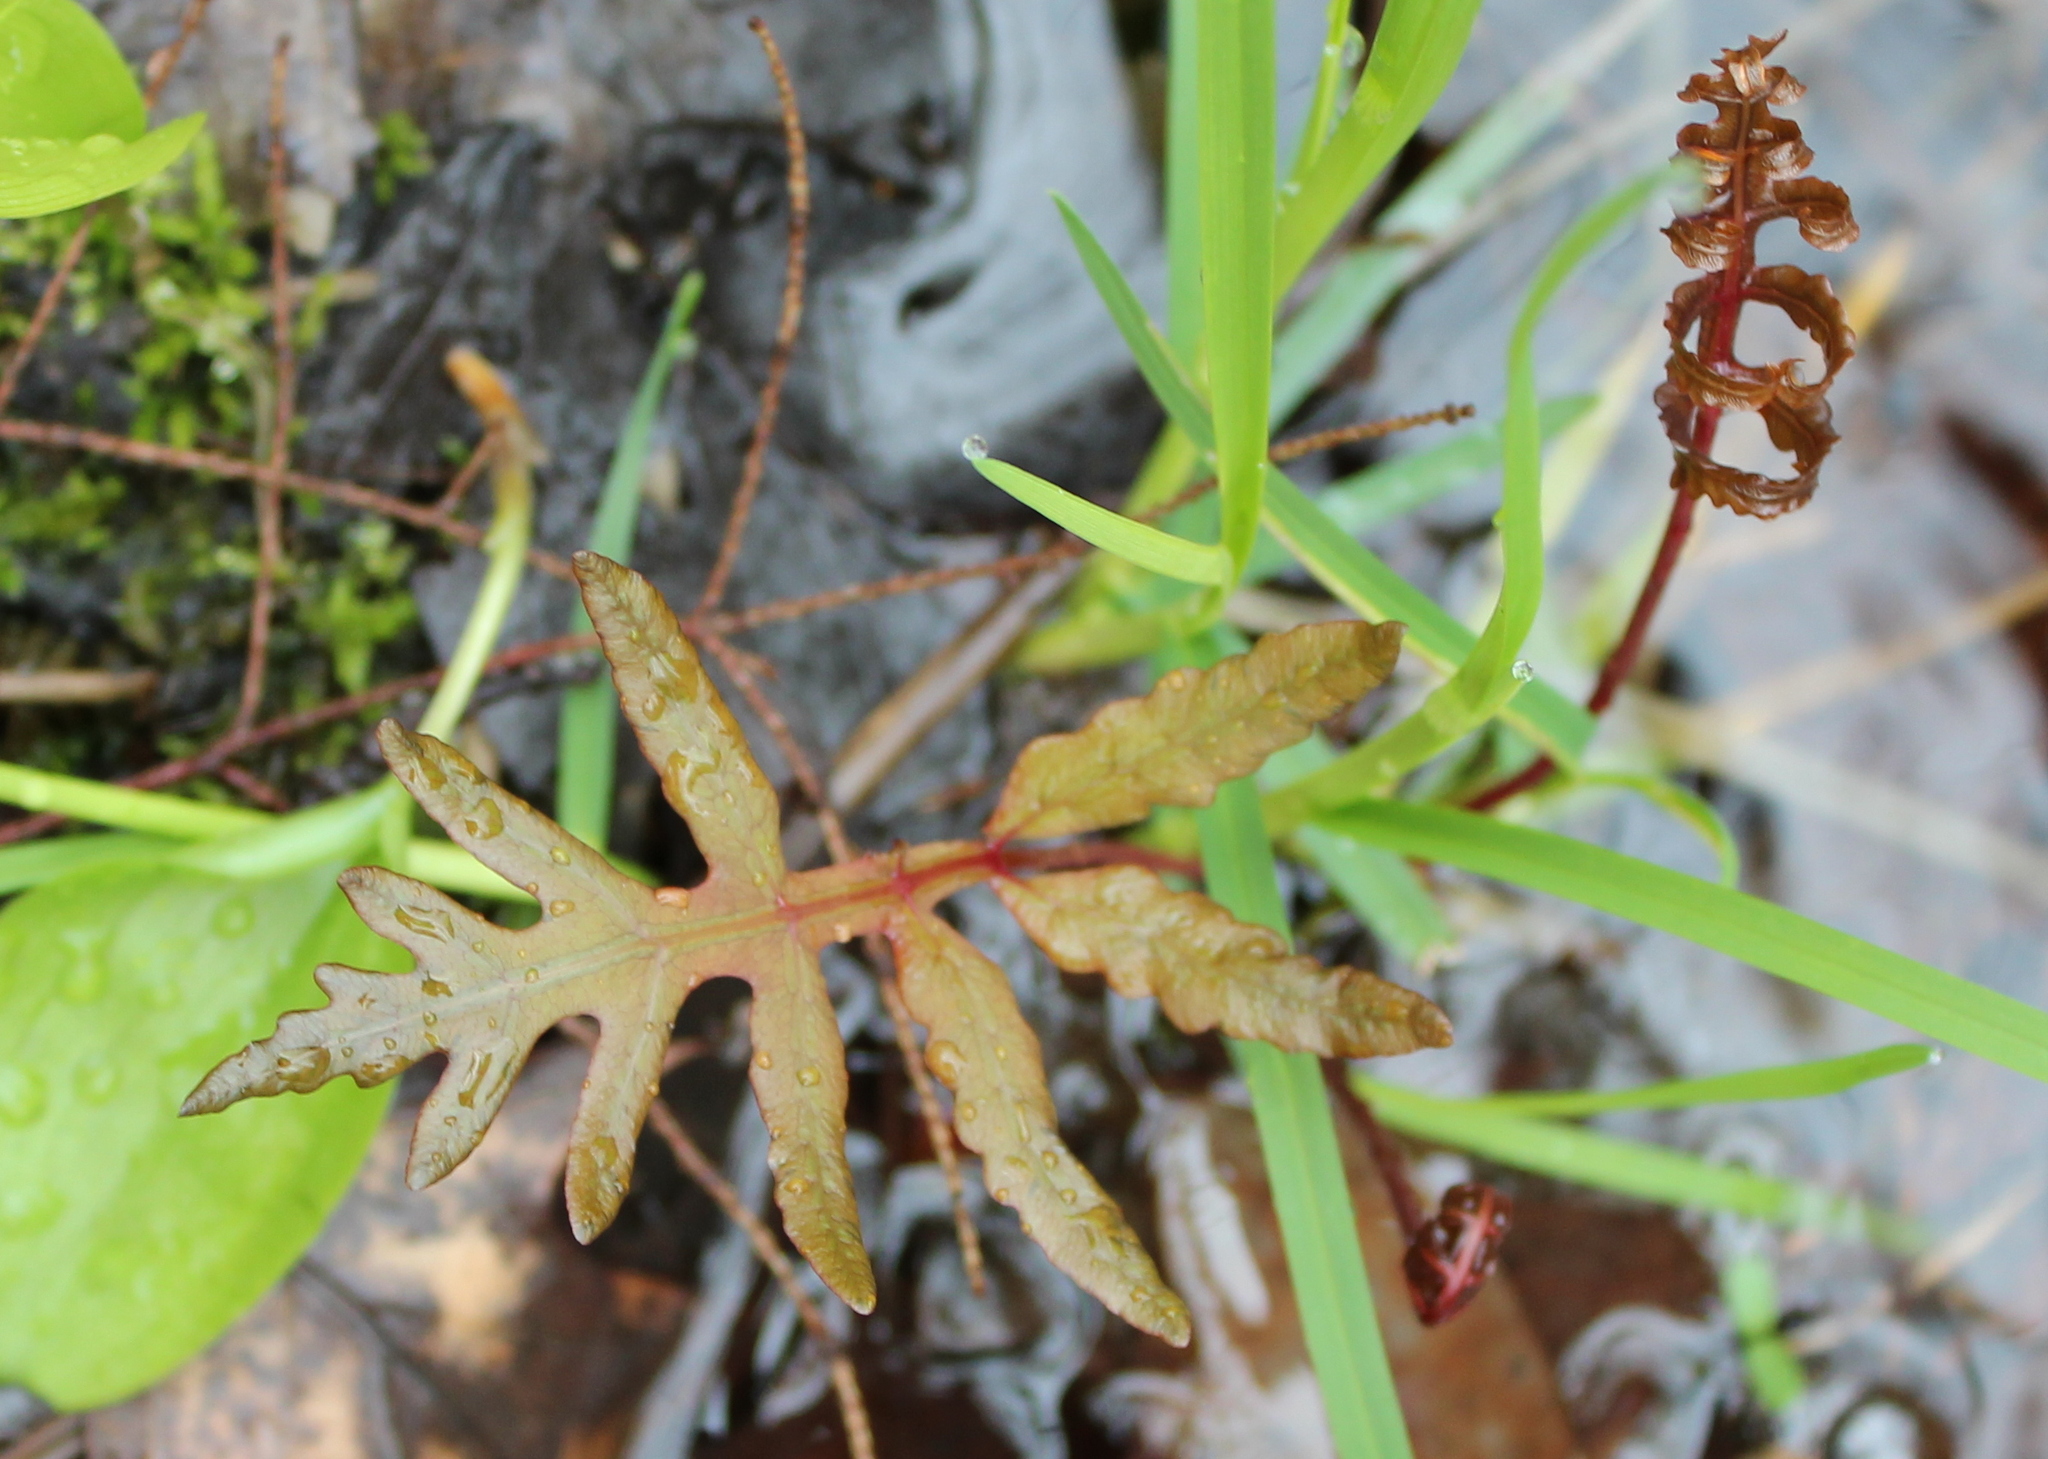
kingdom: Plantae
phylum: Tracheophyta
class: Polypodiopsida
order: Polypodiales
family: Onocleaceae
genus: Onoclea
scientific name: Onoclea sensibilis
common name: Sensitive fern
